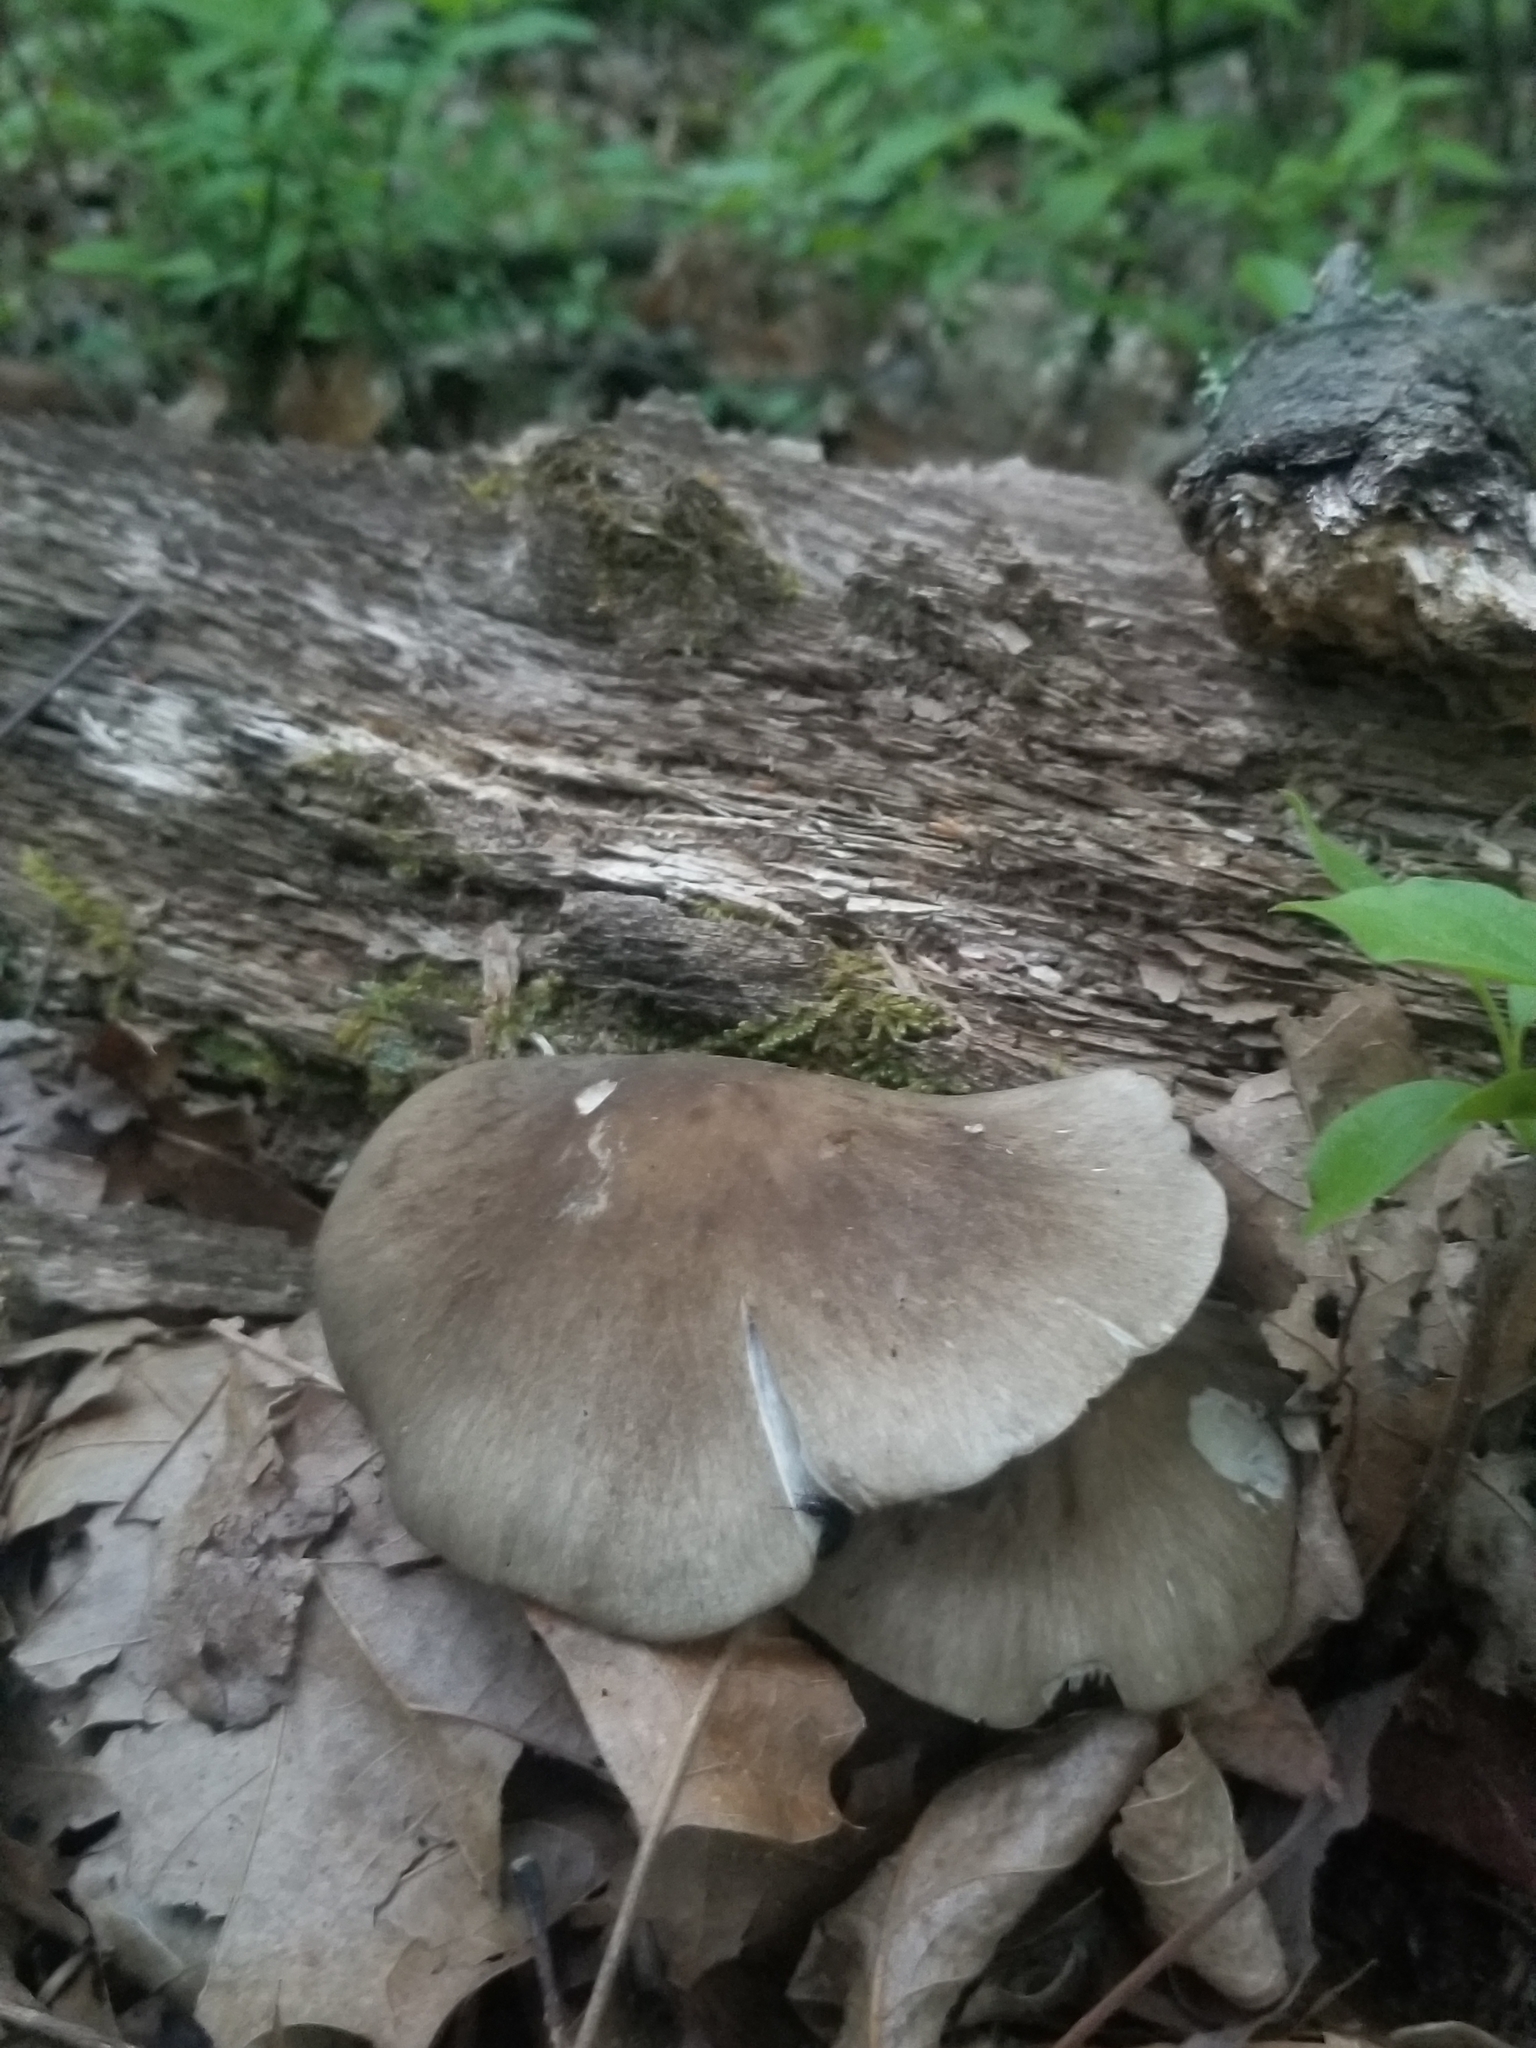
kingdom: Fungi
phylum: Basidiomycota
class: Agaricomycetes
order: Agaricales
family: Tricholomataceae
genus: Megacollybia
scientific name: Megacollybia rodmanii
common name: Eastern american platterful mushroom
